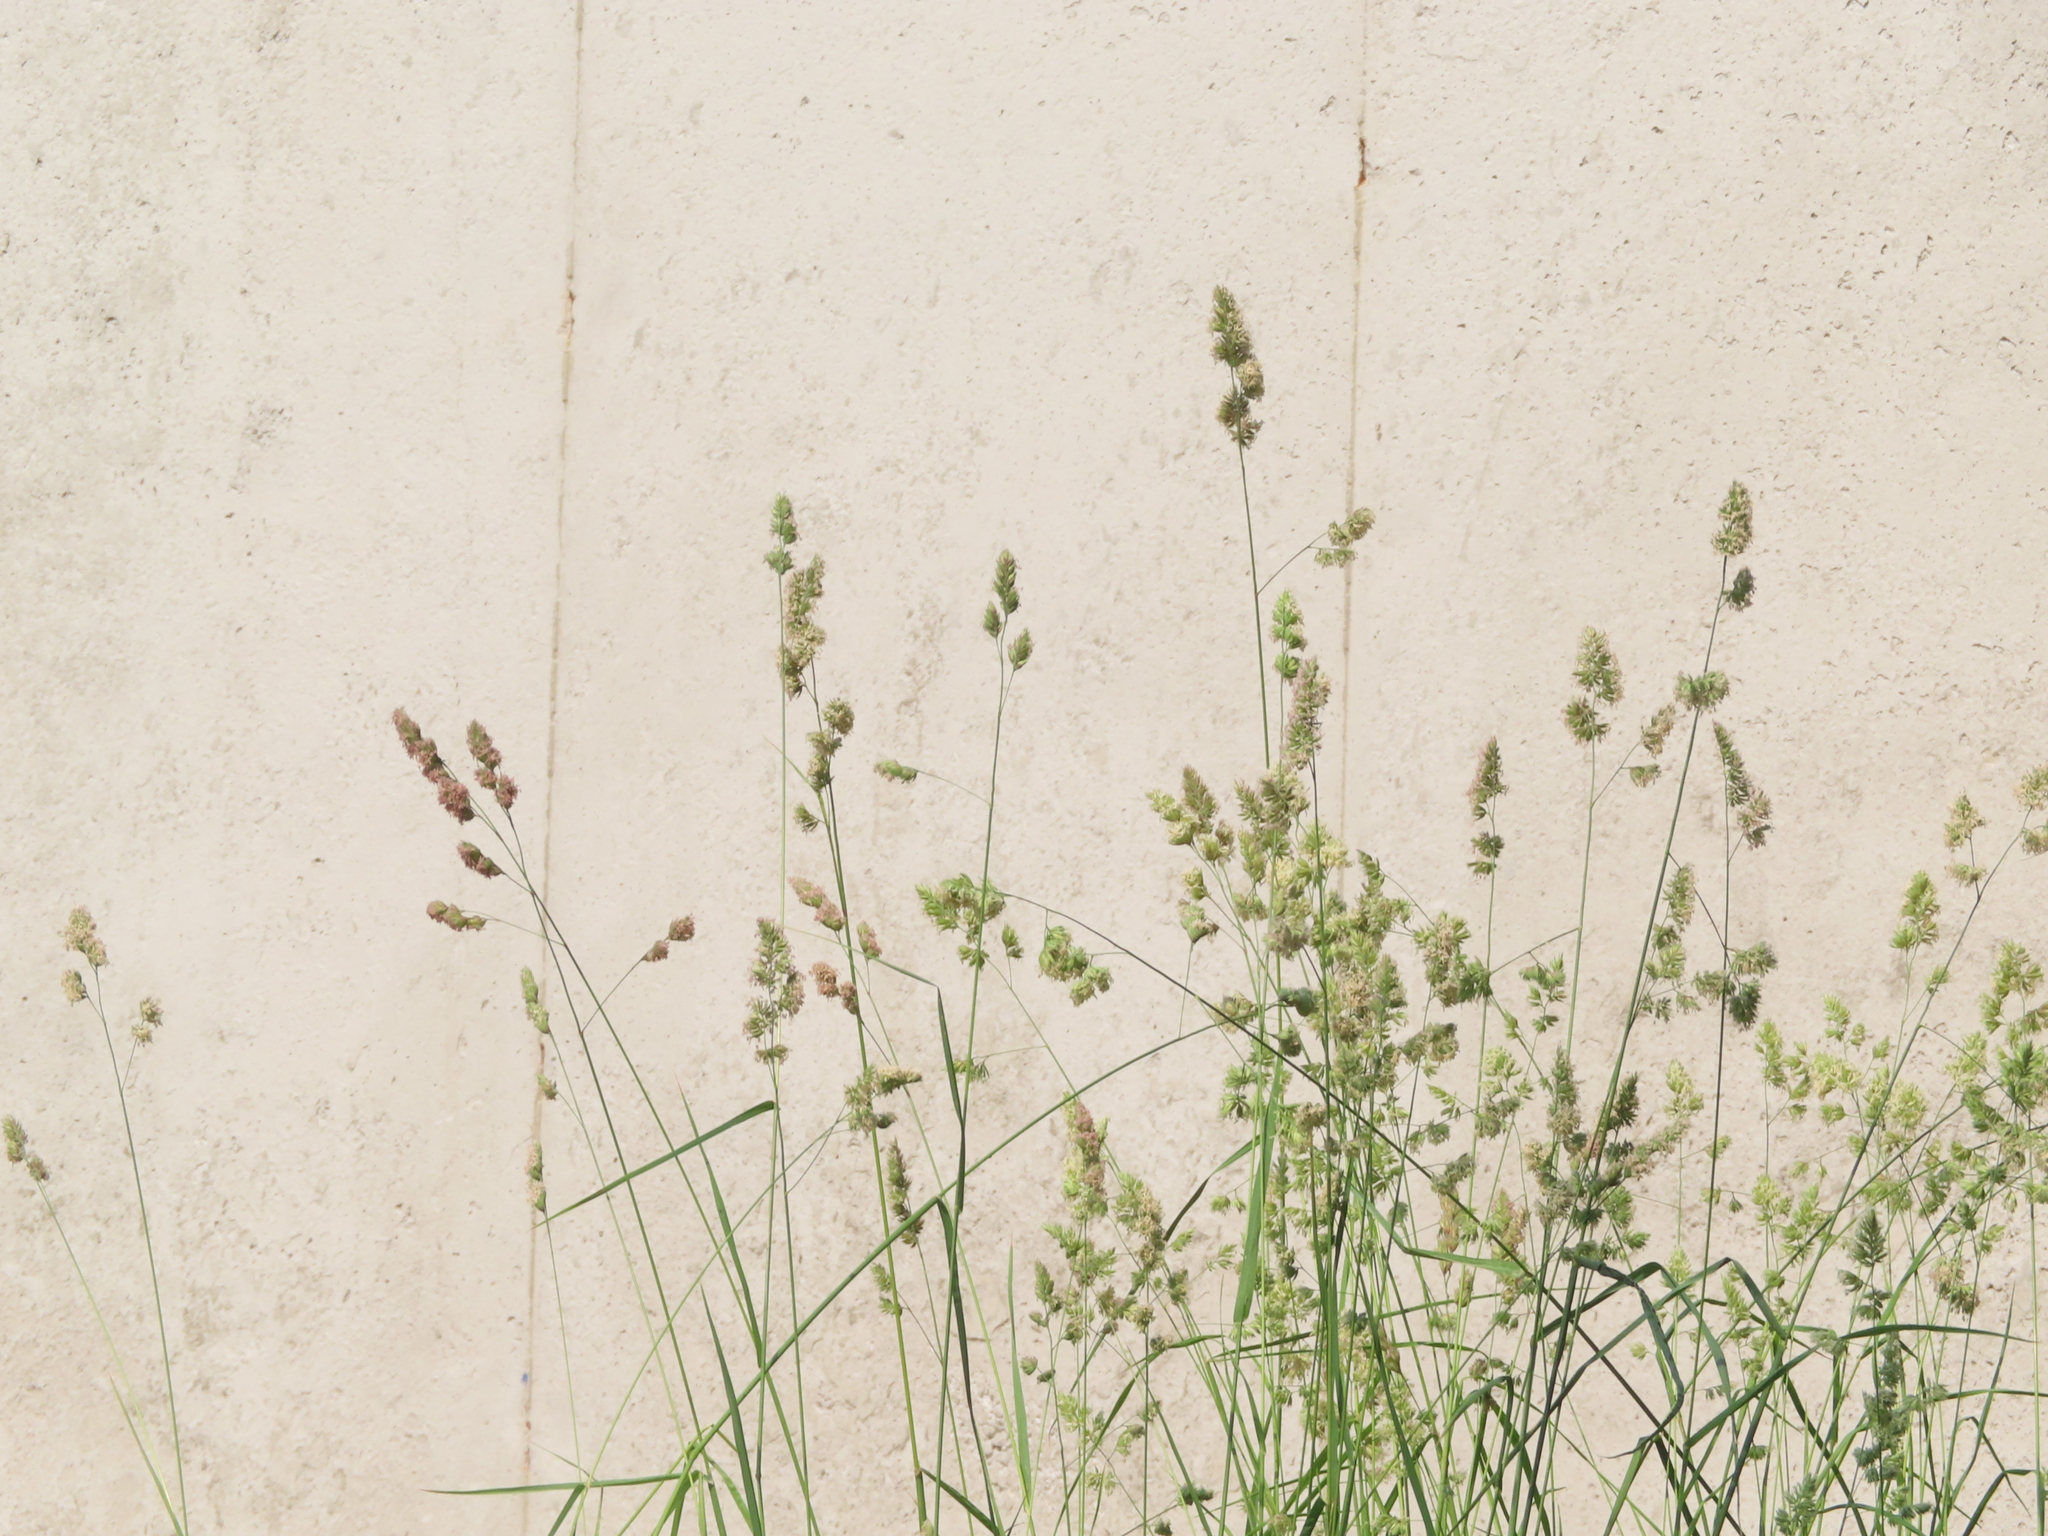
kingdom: Plantae
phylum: Tracheophyta
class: Liliopsida
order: Poales
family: Poaceae
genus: Dactylis
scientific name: Dactylis glomerata
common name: Orchardgrass
